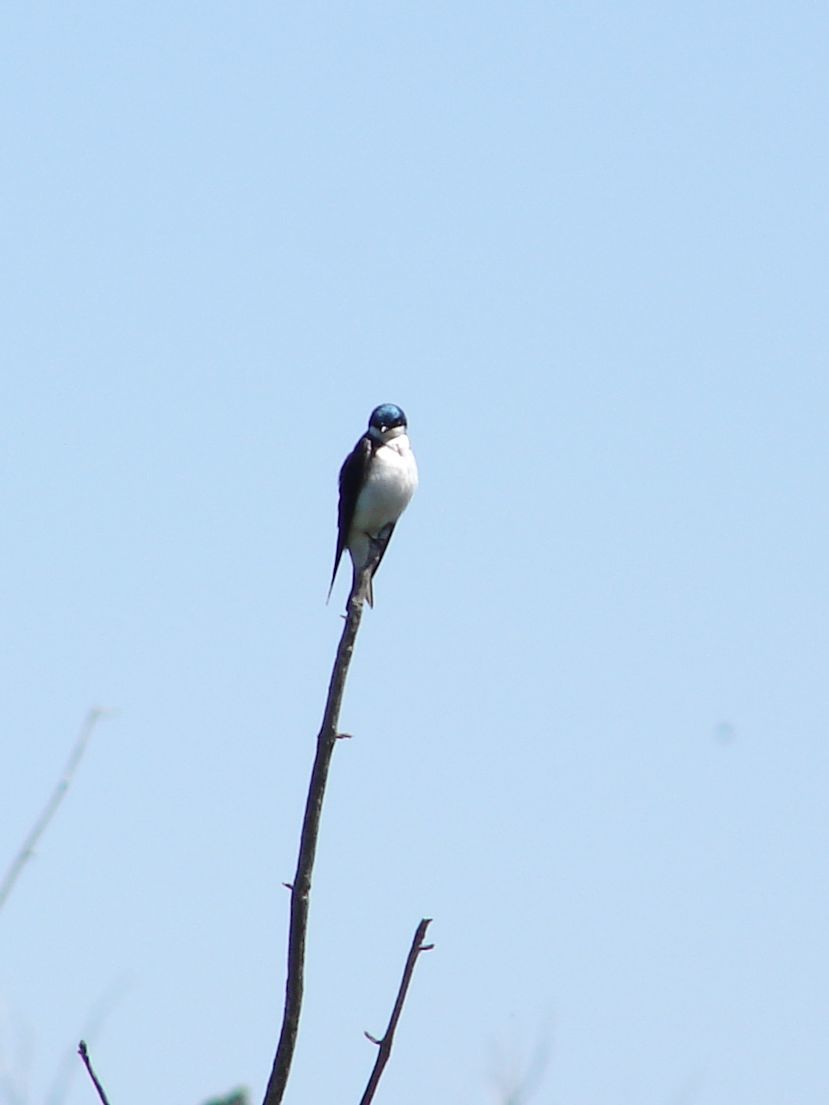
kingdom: Animalia
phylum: Chordata
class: Aves
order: Passeriformes
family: Hirundinidae
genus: Tachycineta
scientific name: Tachycineta bicolor
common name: Tree swallow
